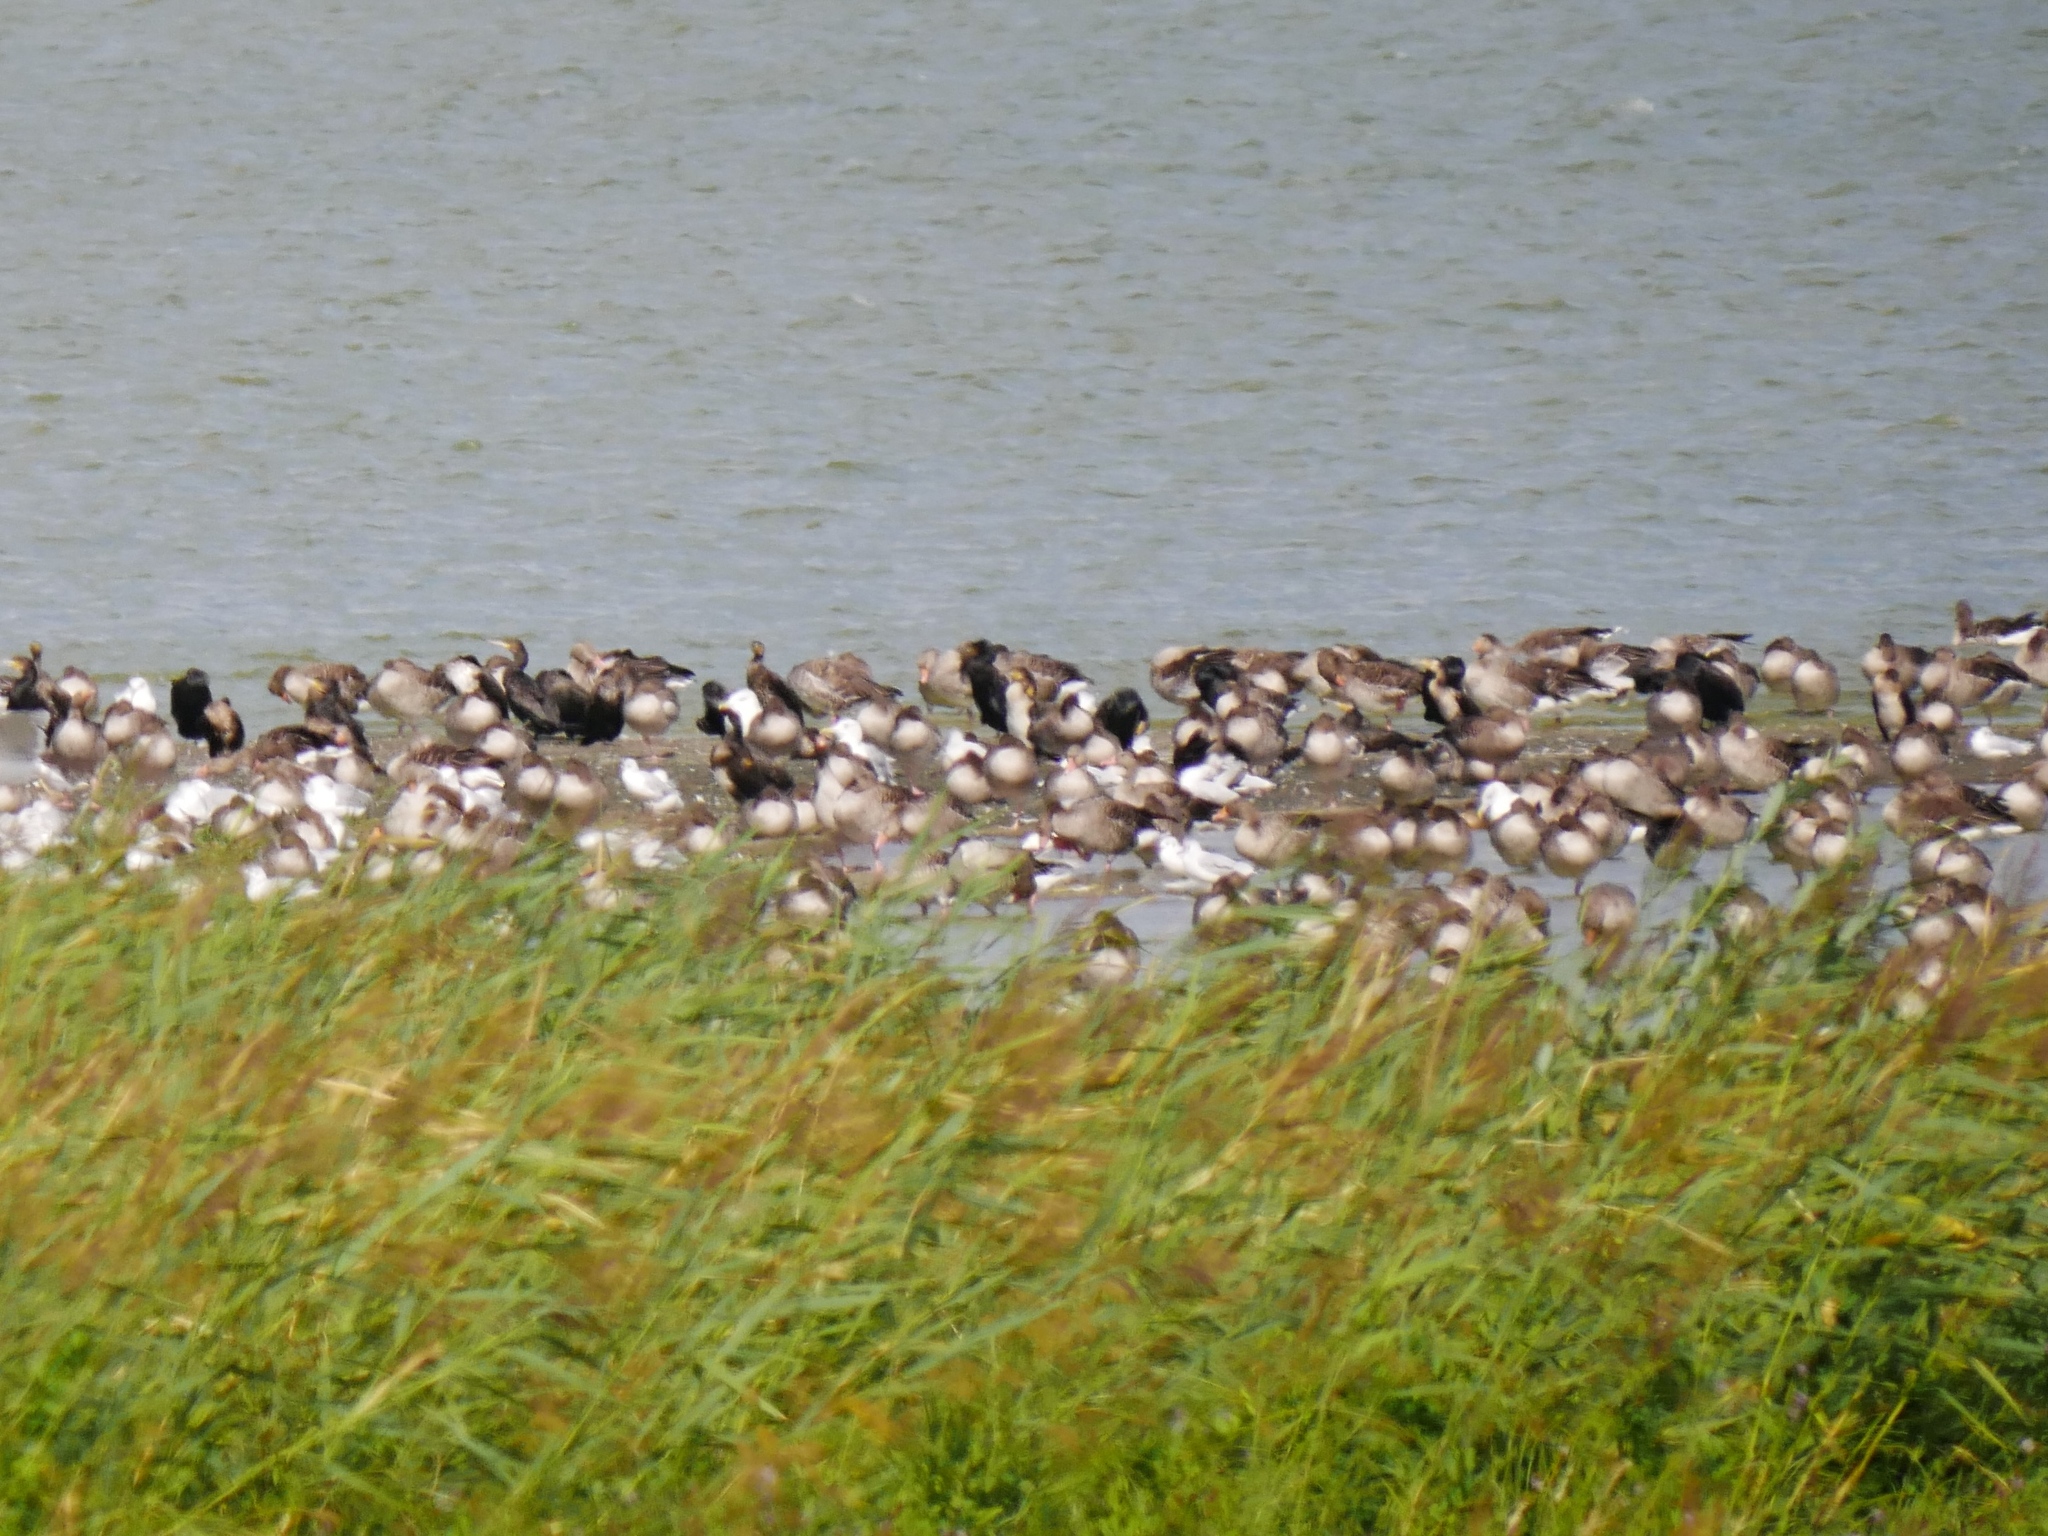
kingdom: Animalia
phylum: Chordata
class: Aves
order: Suliformes
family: Phalacrocoracidae
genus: Phalacrocorax
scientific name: Phalacrocorax carbo
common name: Great cormorant
